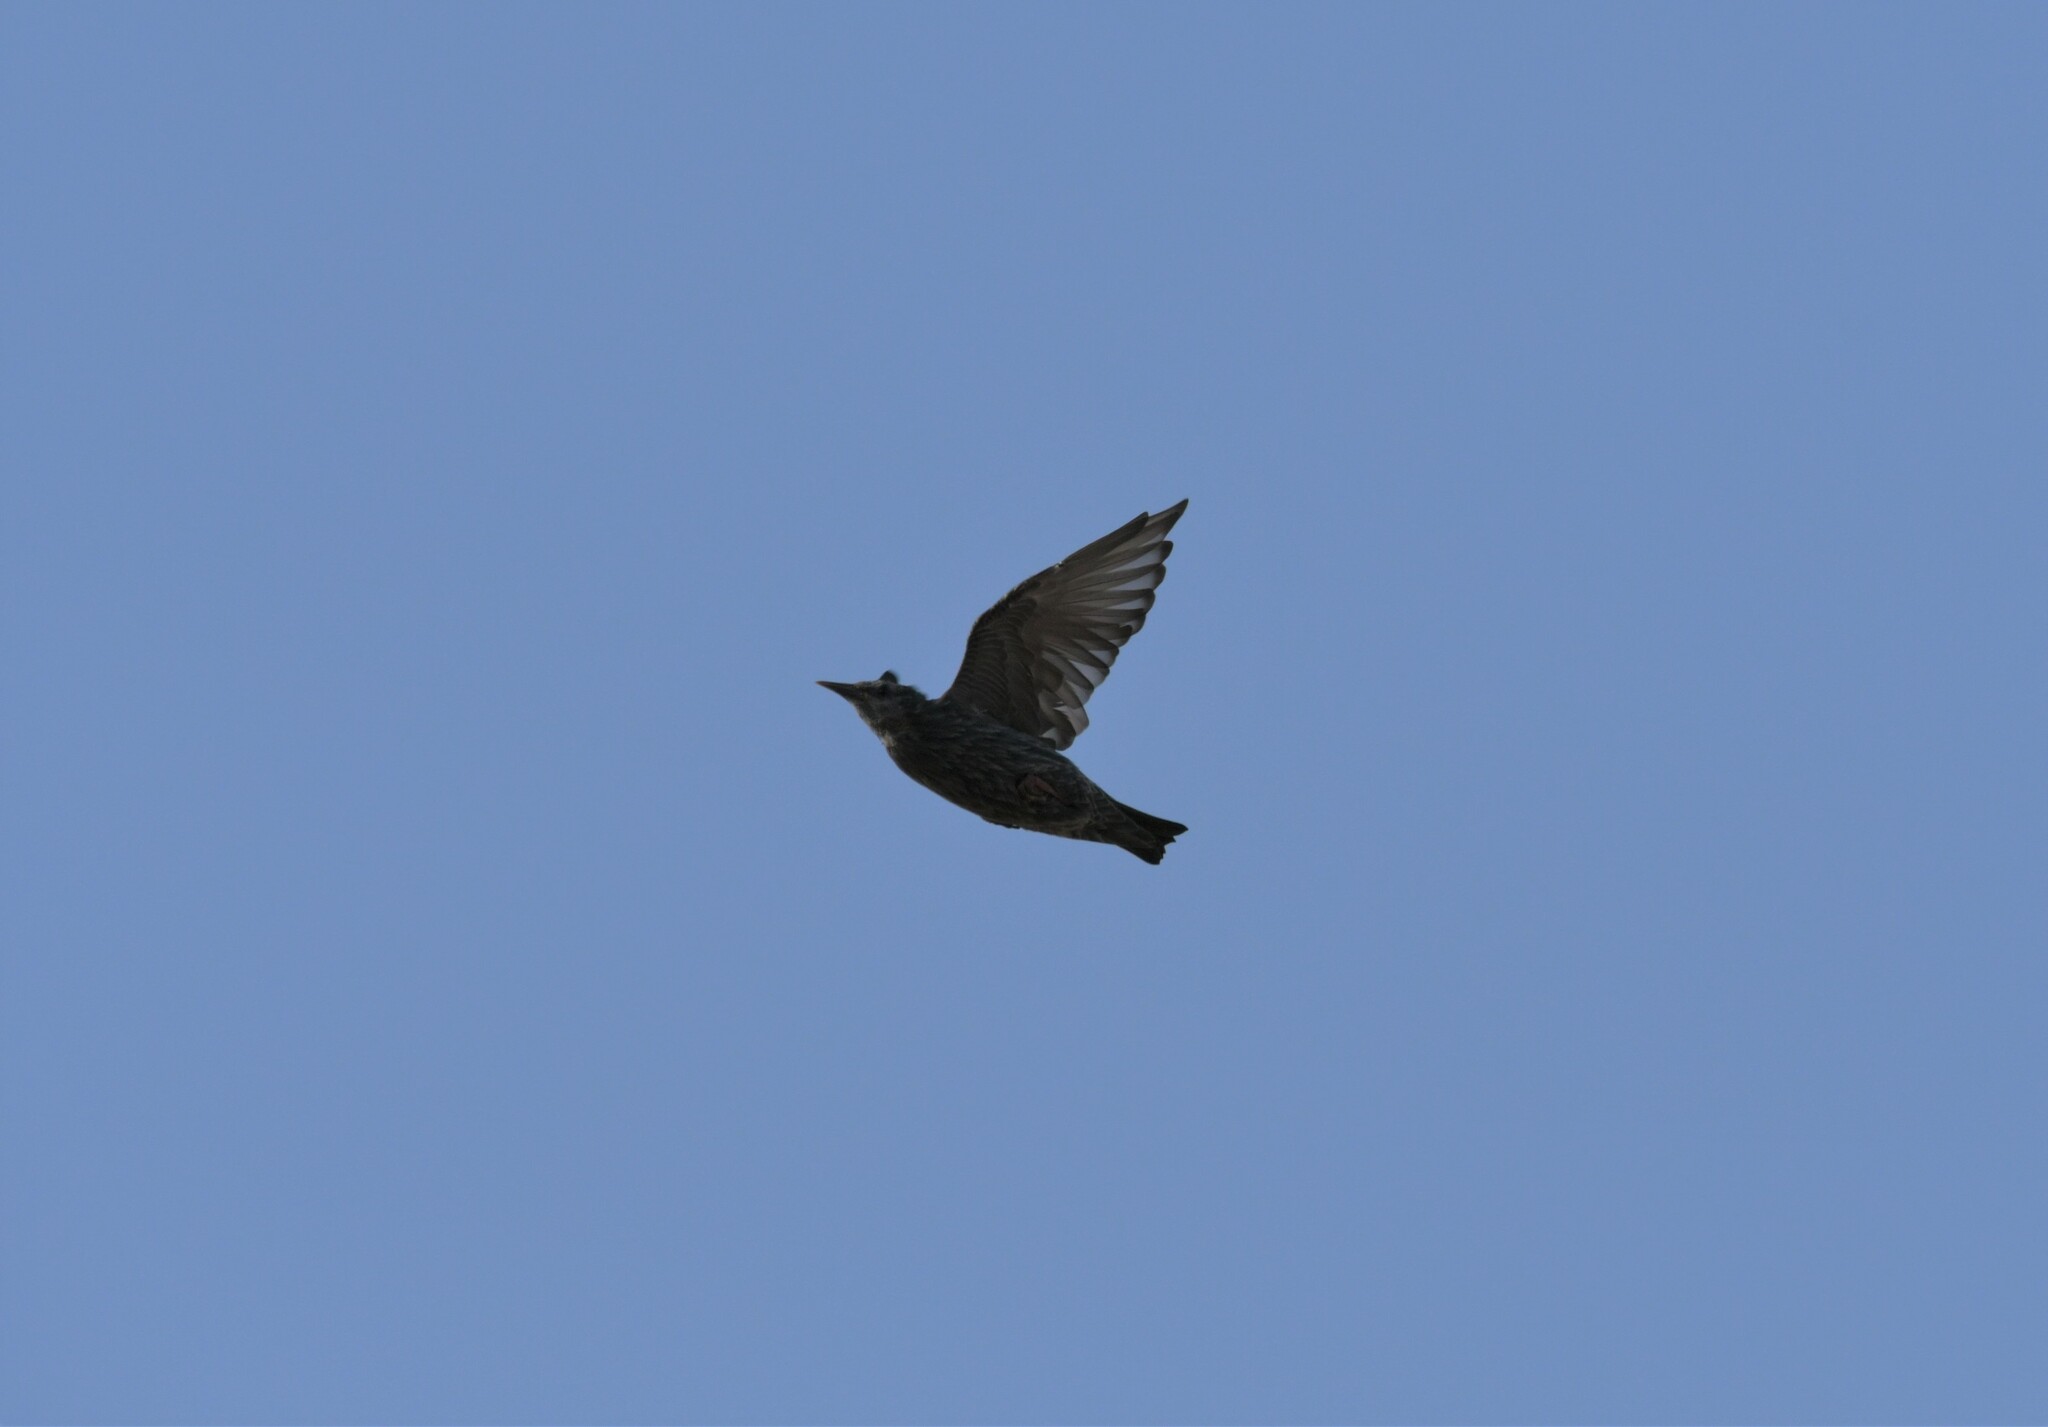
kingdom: Animalia
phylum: Chordata
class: Aves
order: Passeriformes
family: Sturnidae
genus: Sturnus
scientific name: Sturnus unicolor
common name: Spotless starling
